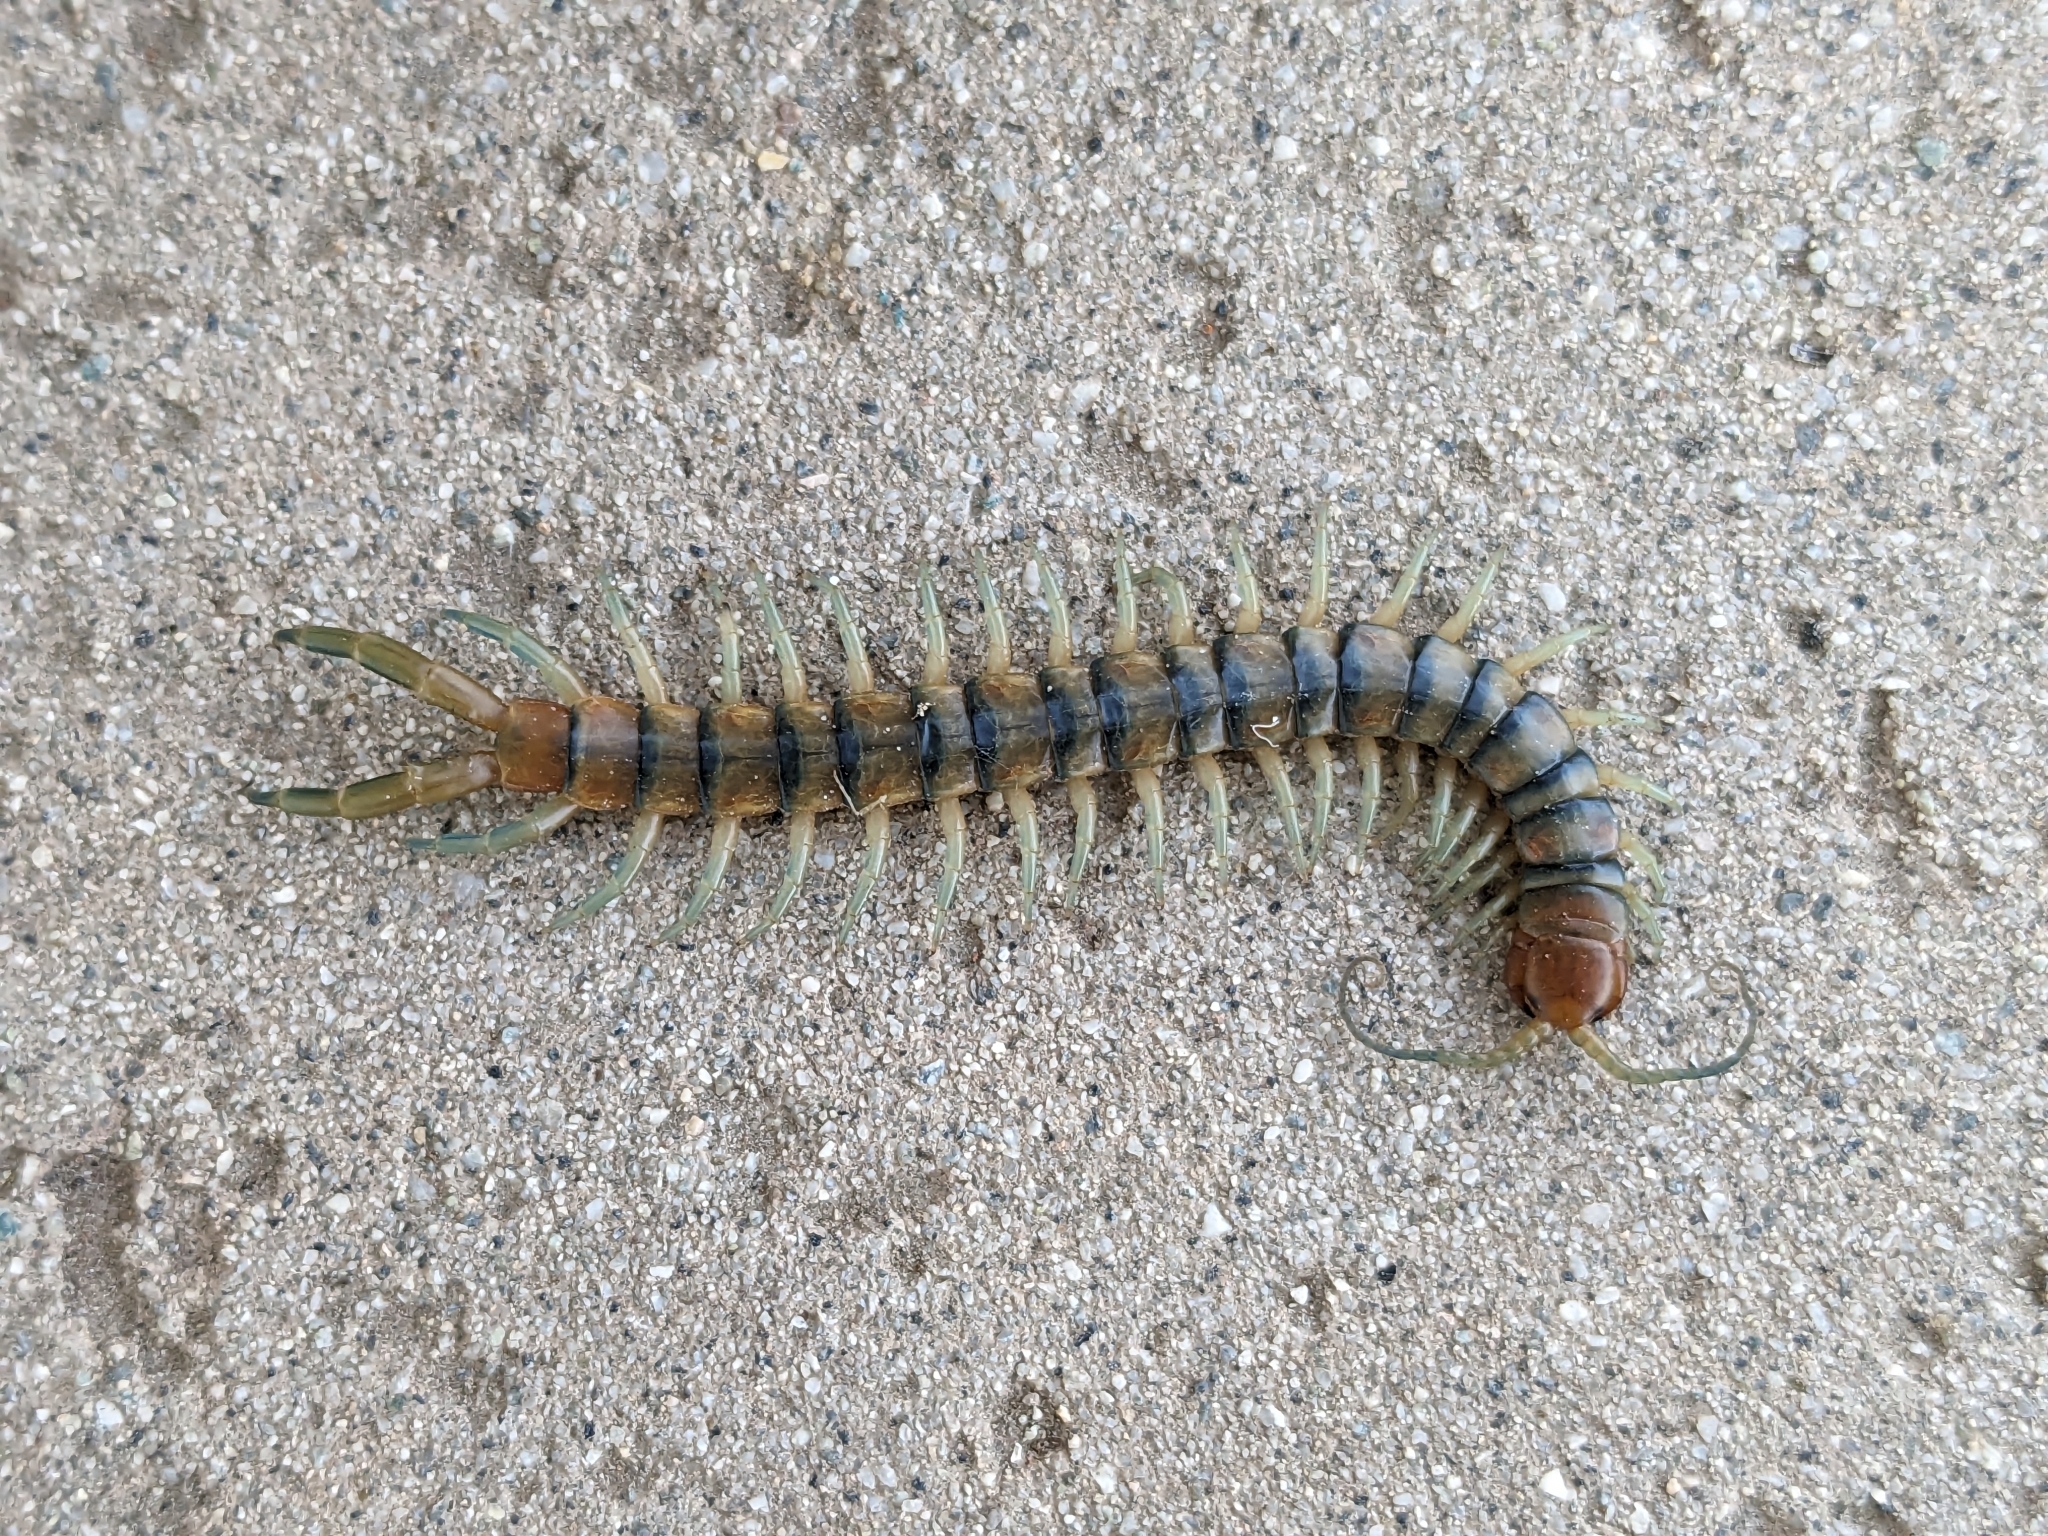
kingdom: Animalia
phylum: Arthropoda
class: Chilopoda
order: Scolopendromorpha
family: Scolopendridae
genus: Scolopendra
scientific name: Scolopendra polymorpha
